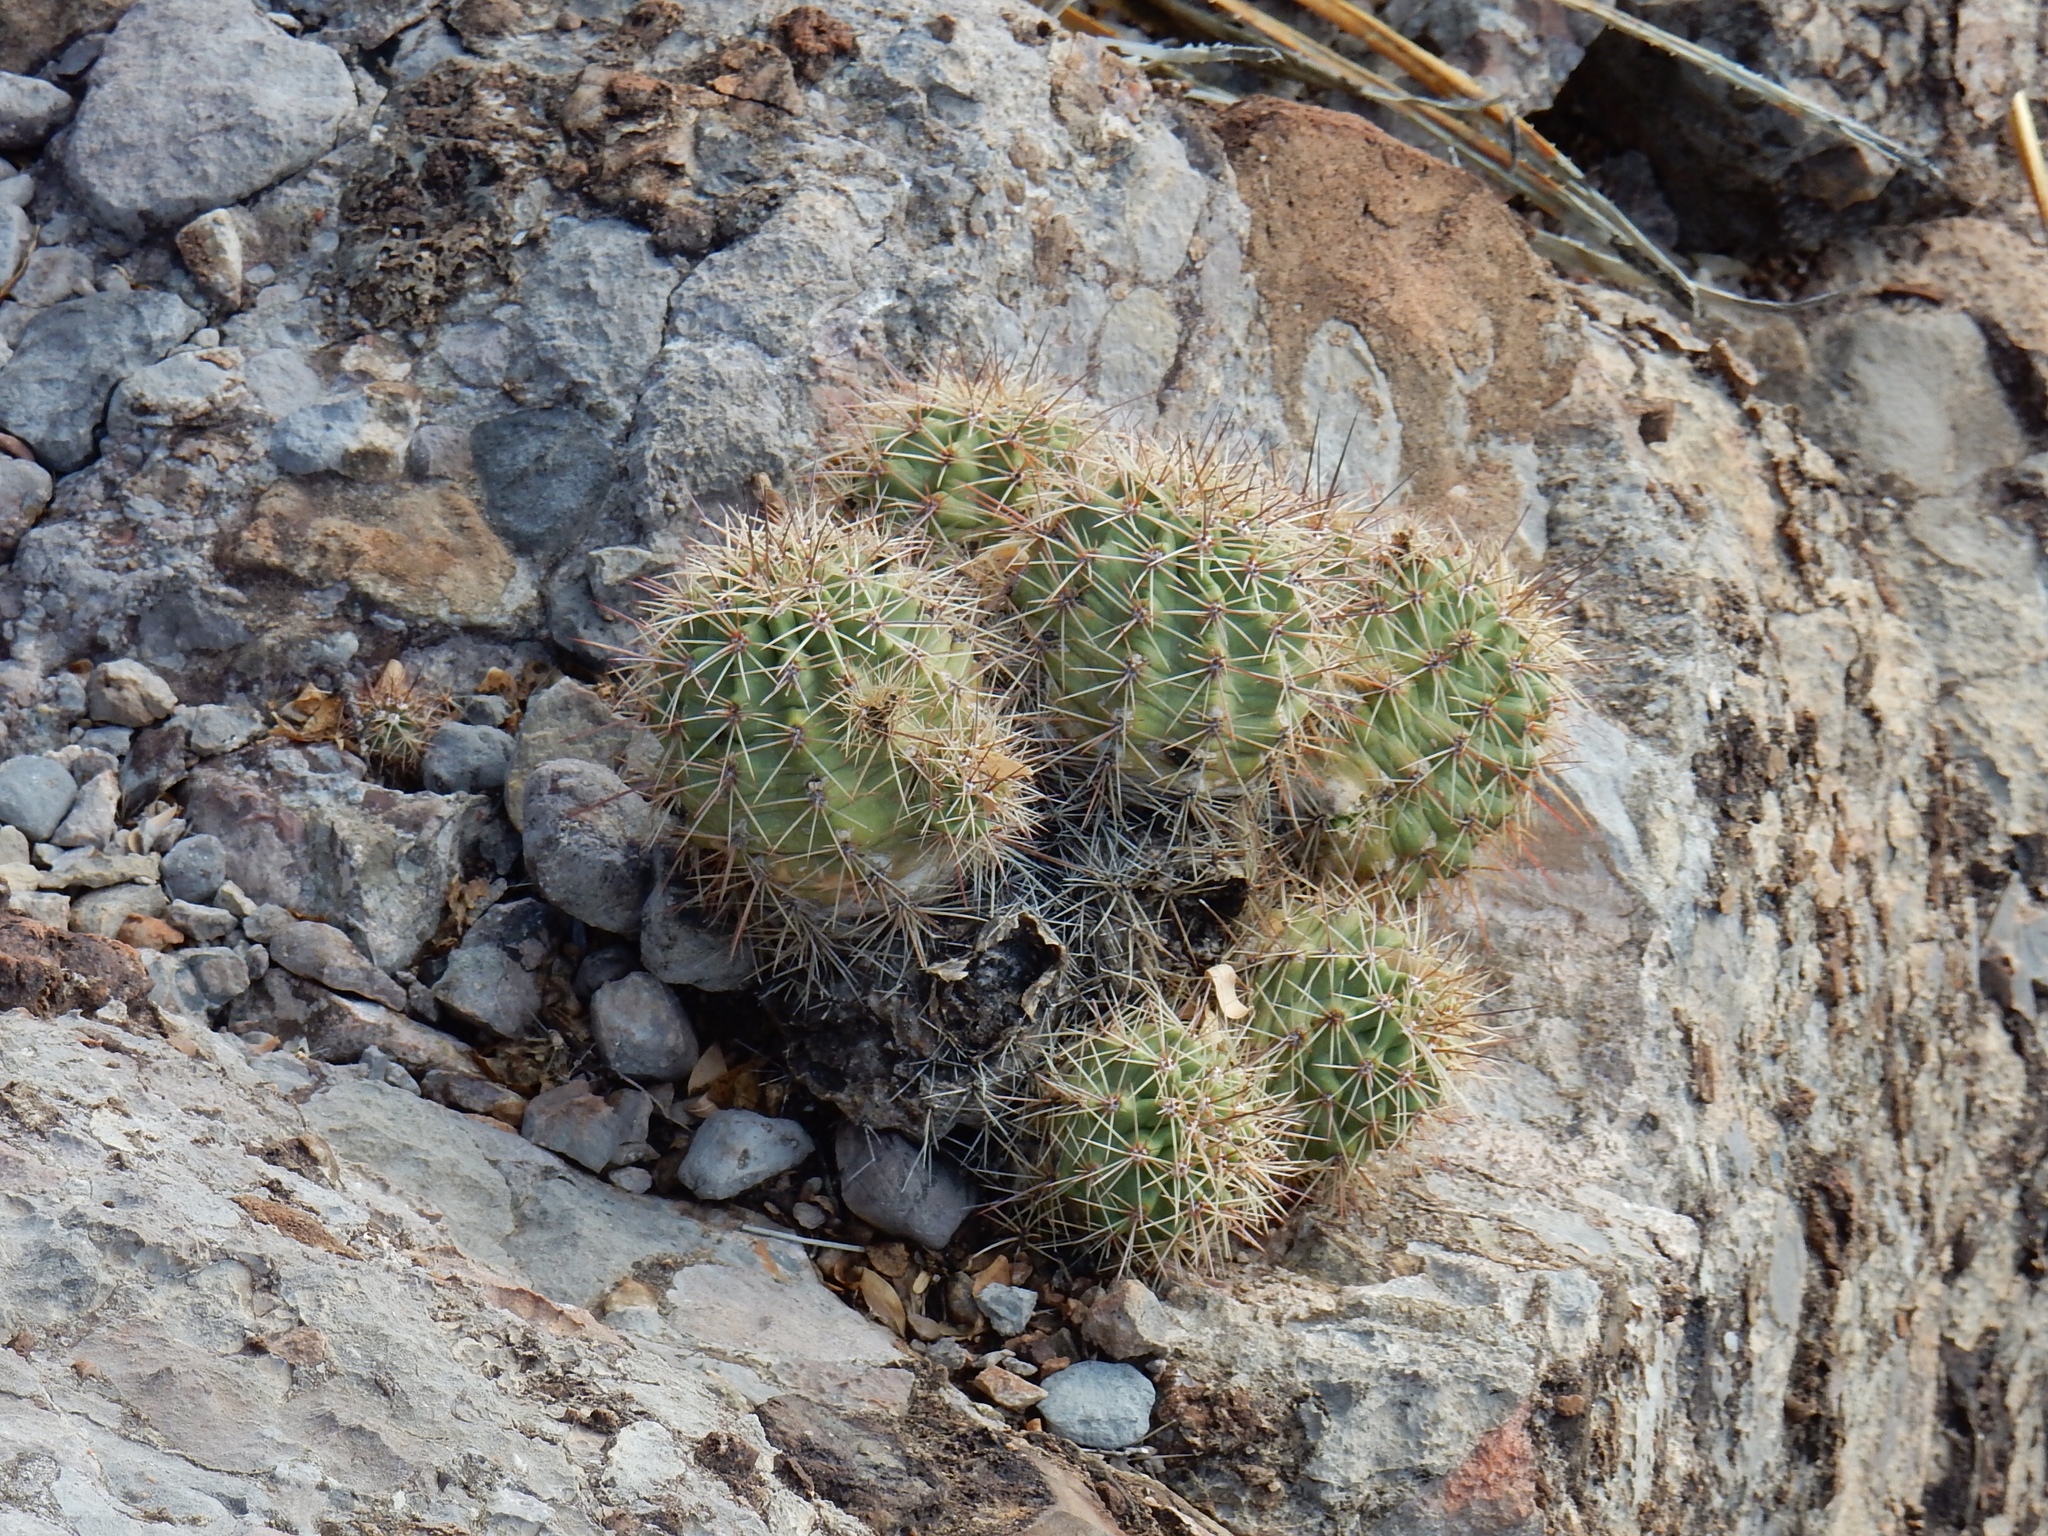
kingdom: Plantae
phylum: Tracheophyta
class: Magnoliopsida
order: Caryophyllales
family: Cactaceae
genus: Echinocereus
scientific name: Echinocereus coccineus
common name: Scarlet hedgehog cactus
